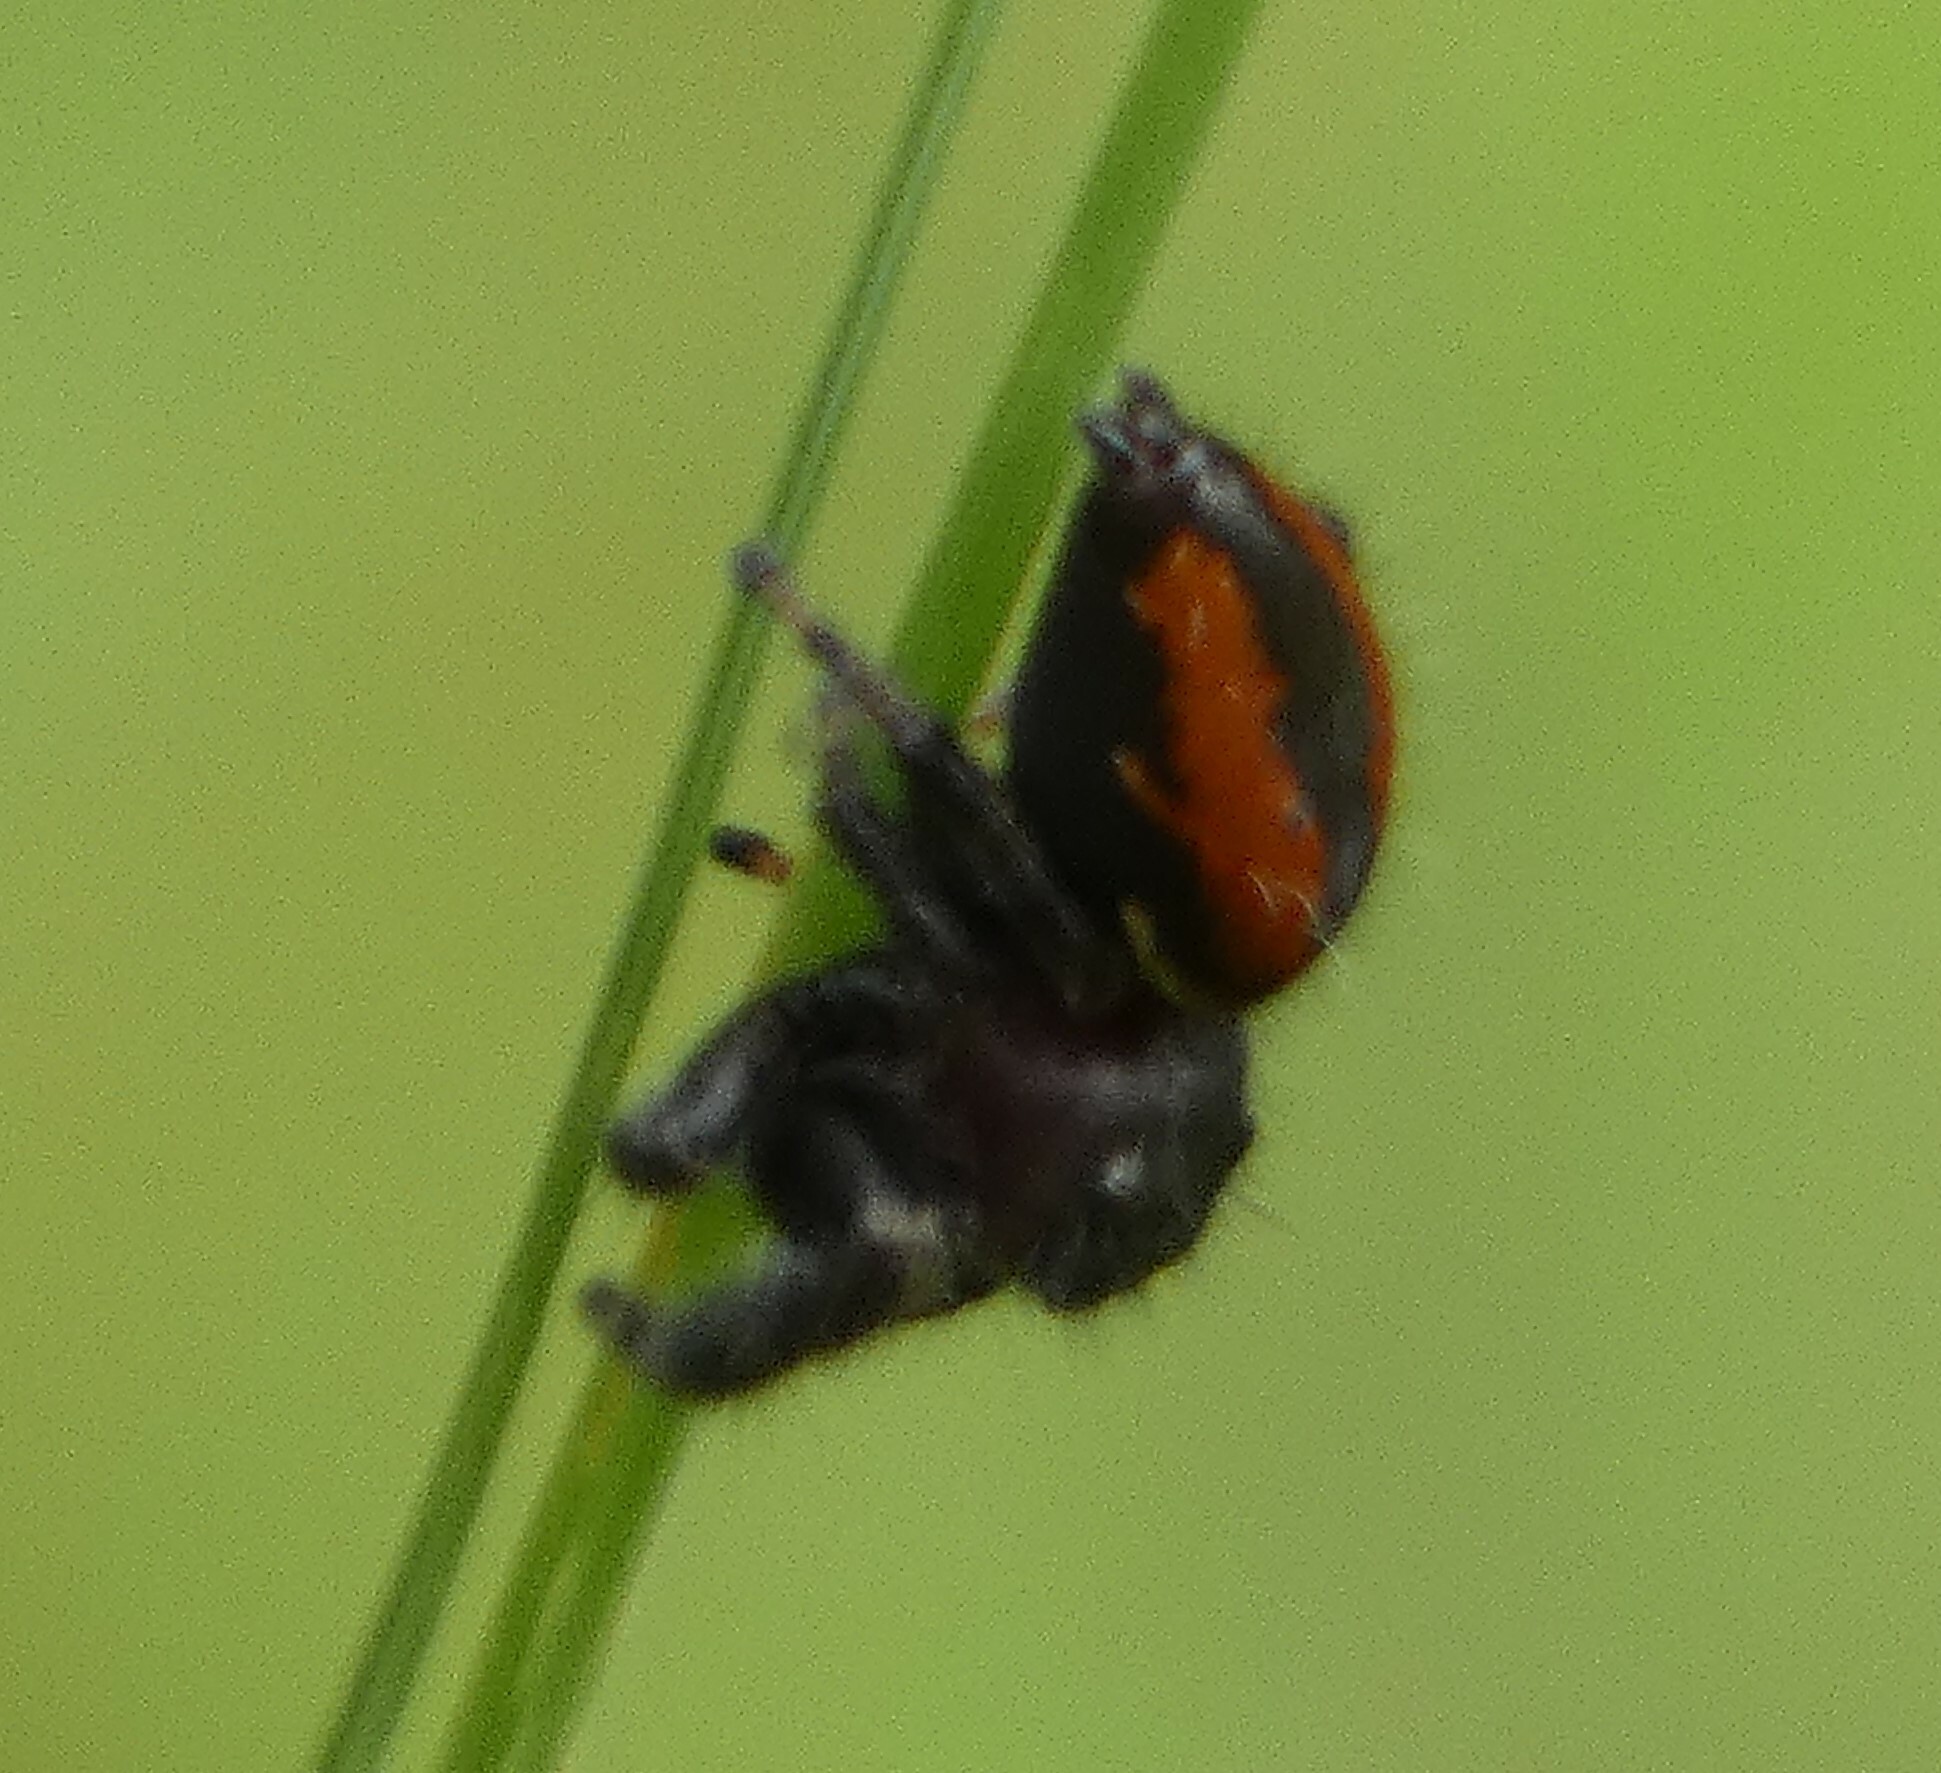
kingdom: Animalia
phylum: Arthropoda
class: Arachnida
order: Araneae
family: Salticidae
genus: Phidippus
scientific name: Phidippus clarus
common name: Brilliant jumping spider
